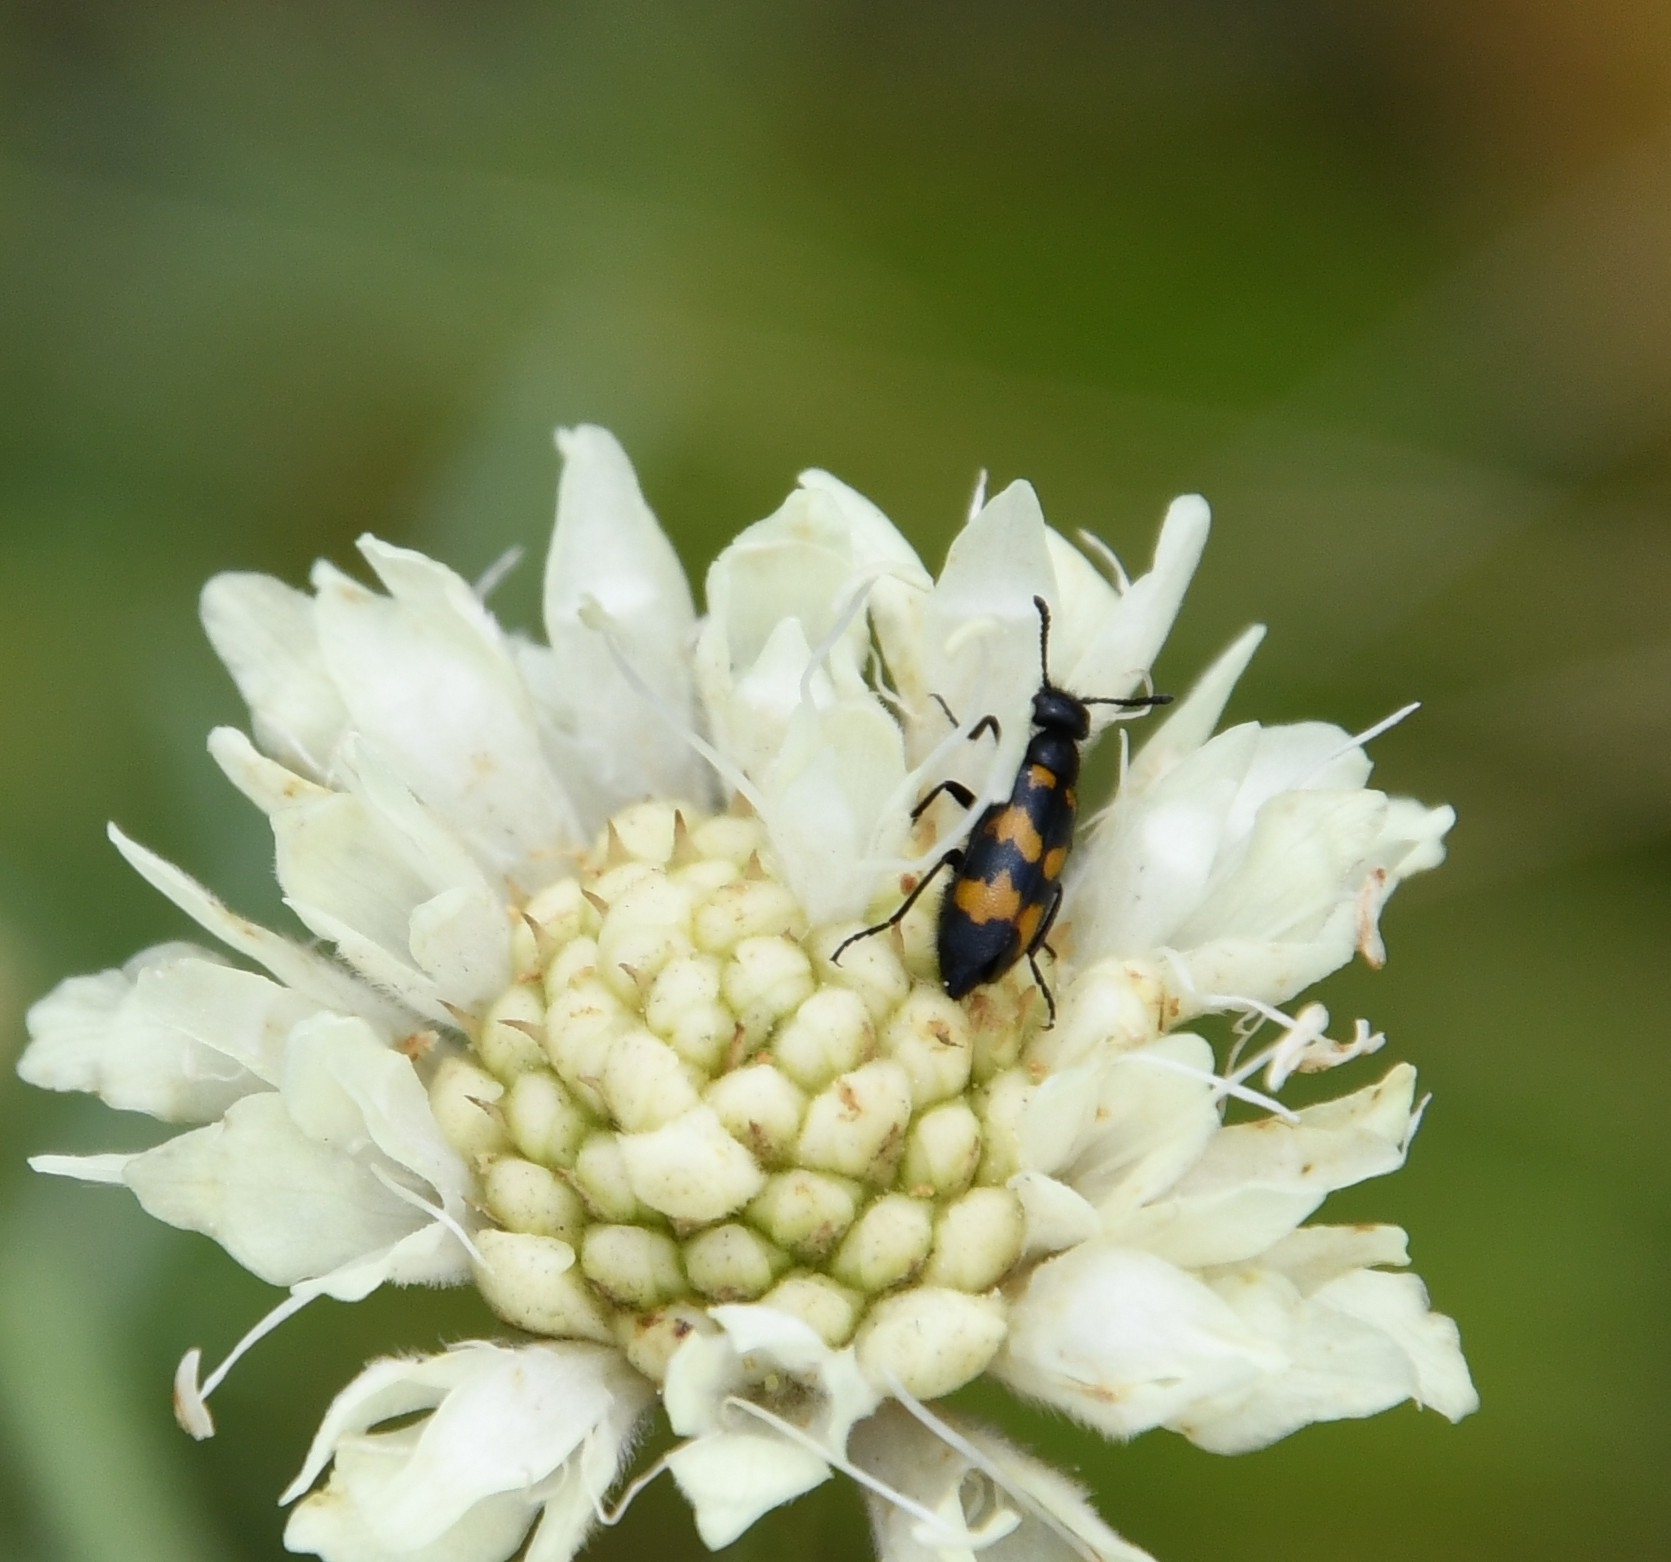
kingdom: Animalia
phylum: Arthropoda
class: Insecta
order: Coleoptera
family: Meloidae
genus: Mylabris
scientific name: Mylabris pusilla
